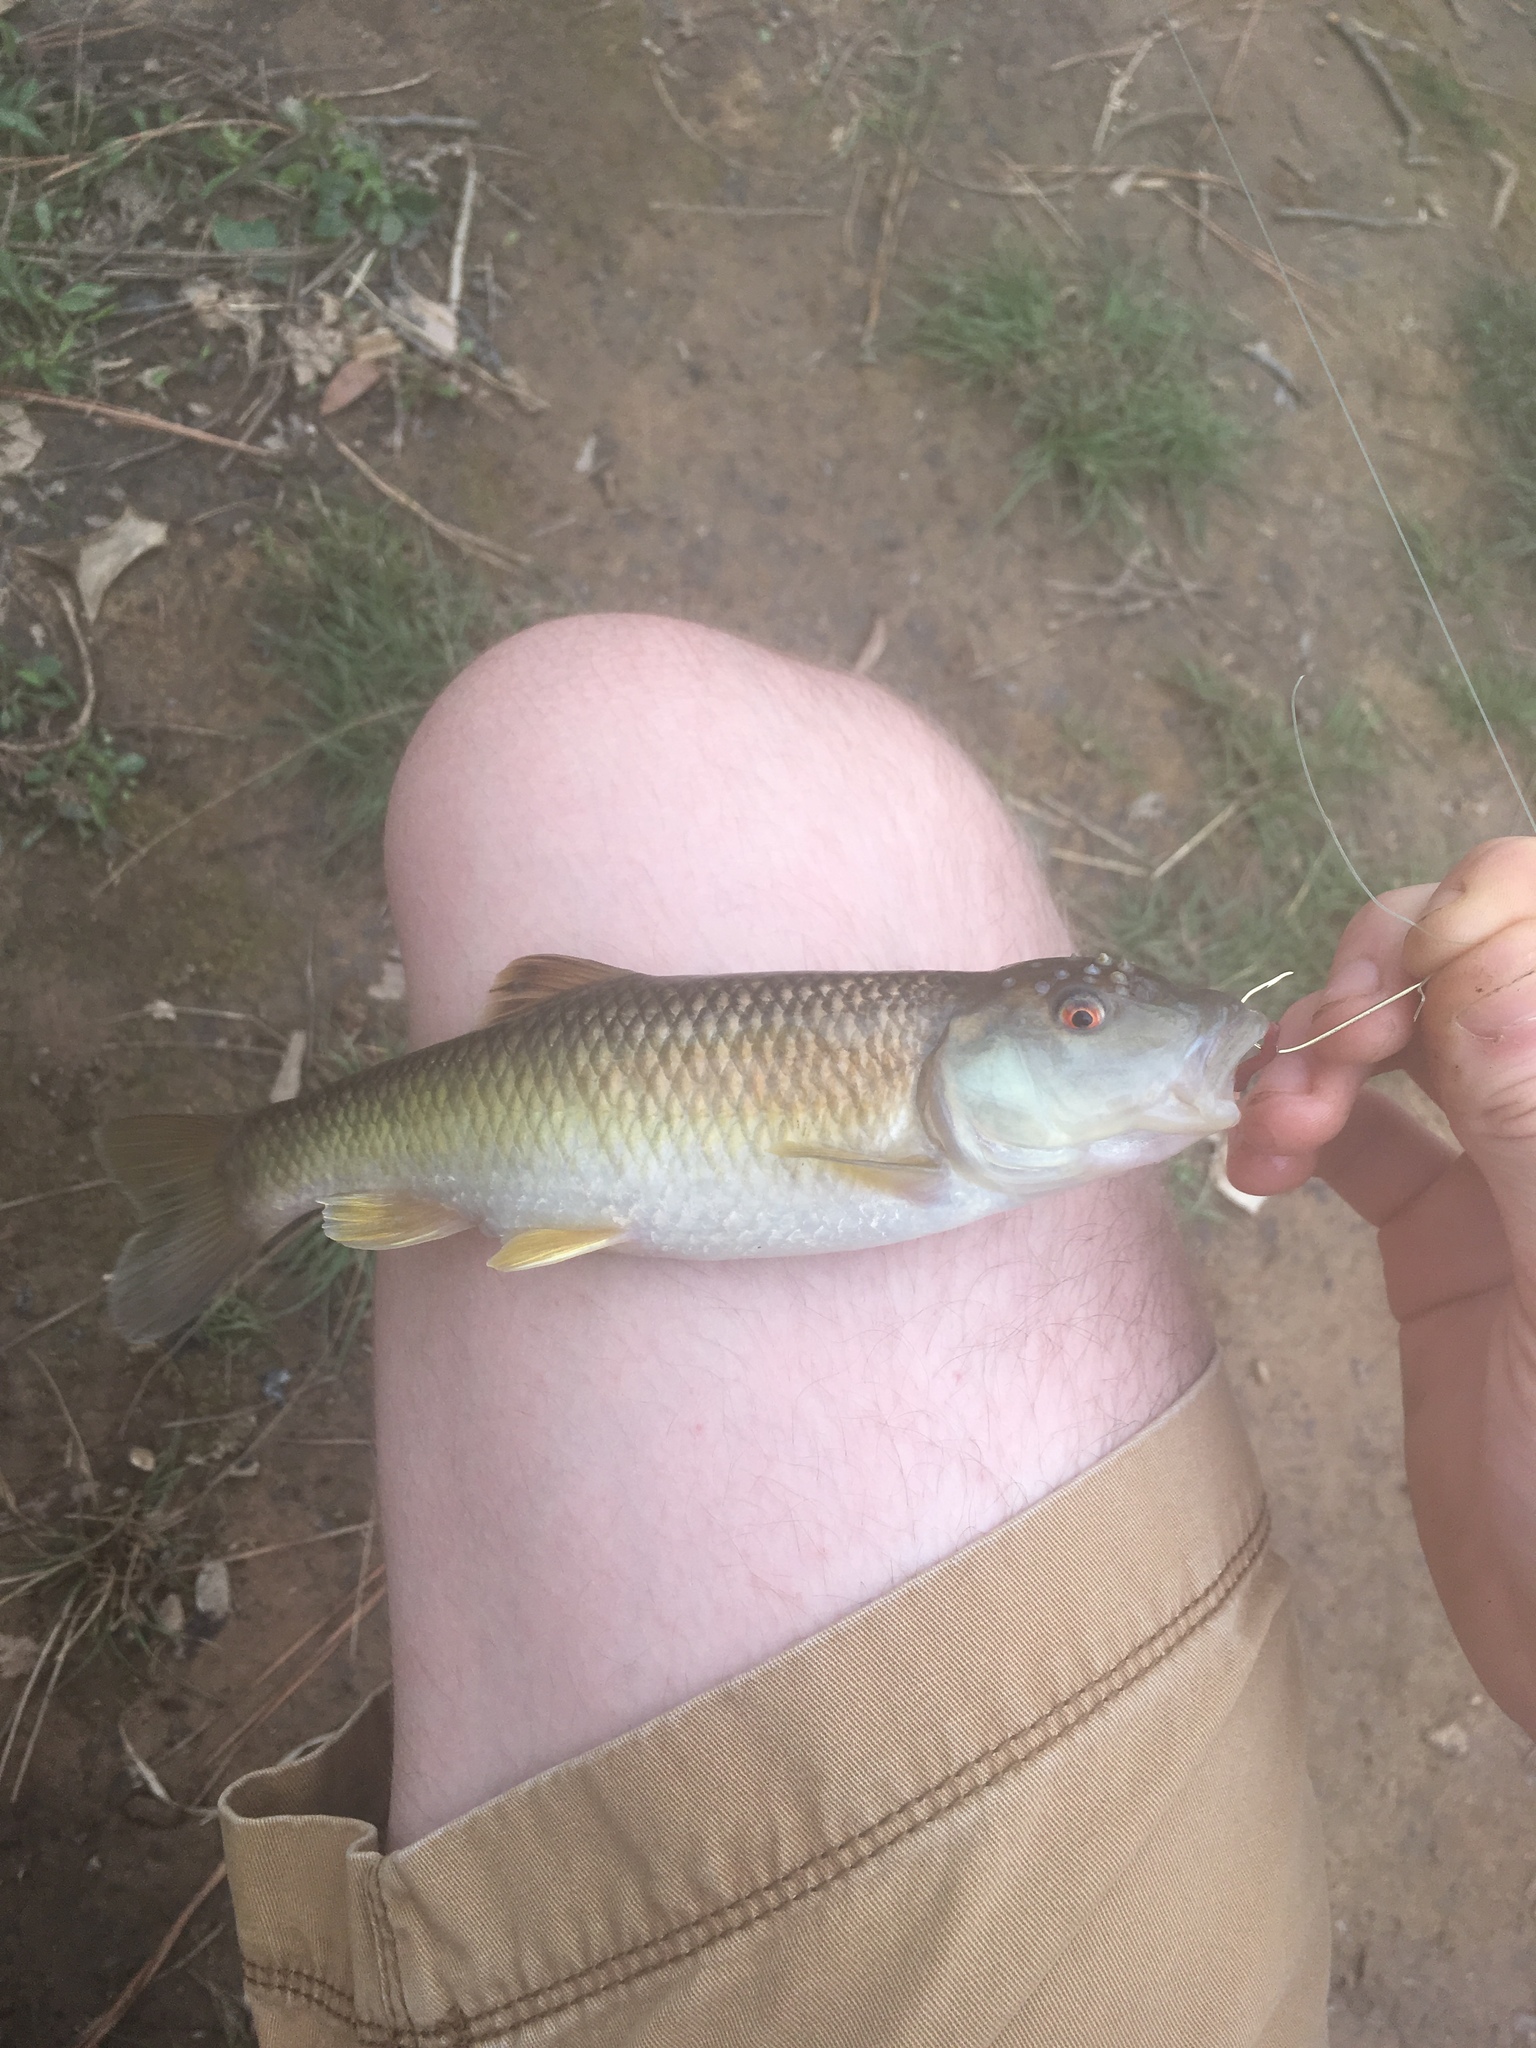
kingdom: Animalia
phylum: Chordata
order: Cypriniformes
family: Cyprinidae
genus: Nocomis
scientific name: Nocomis leptocephalus
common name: Bluehead chub
